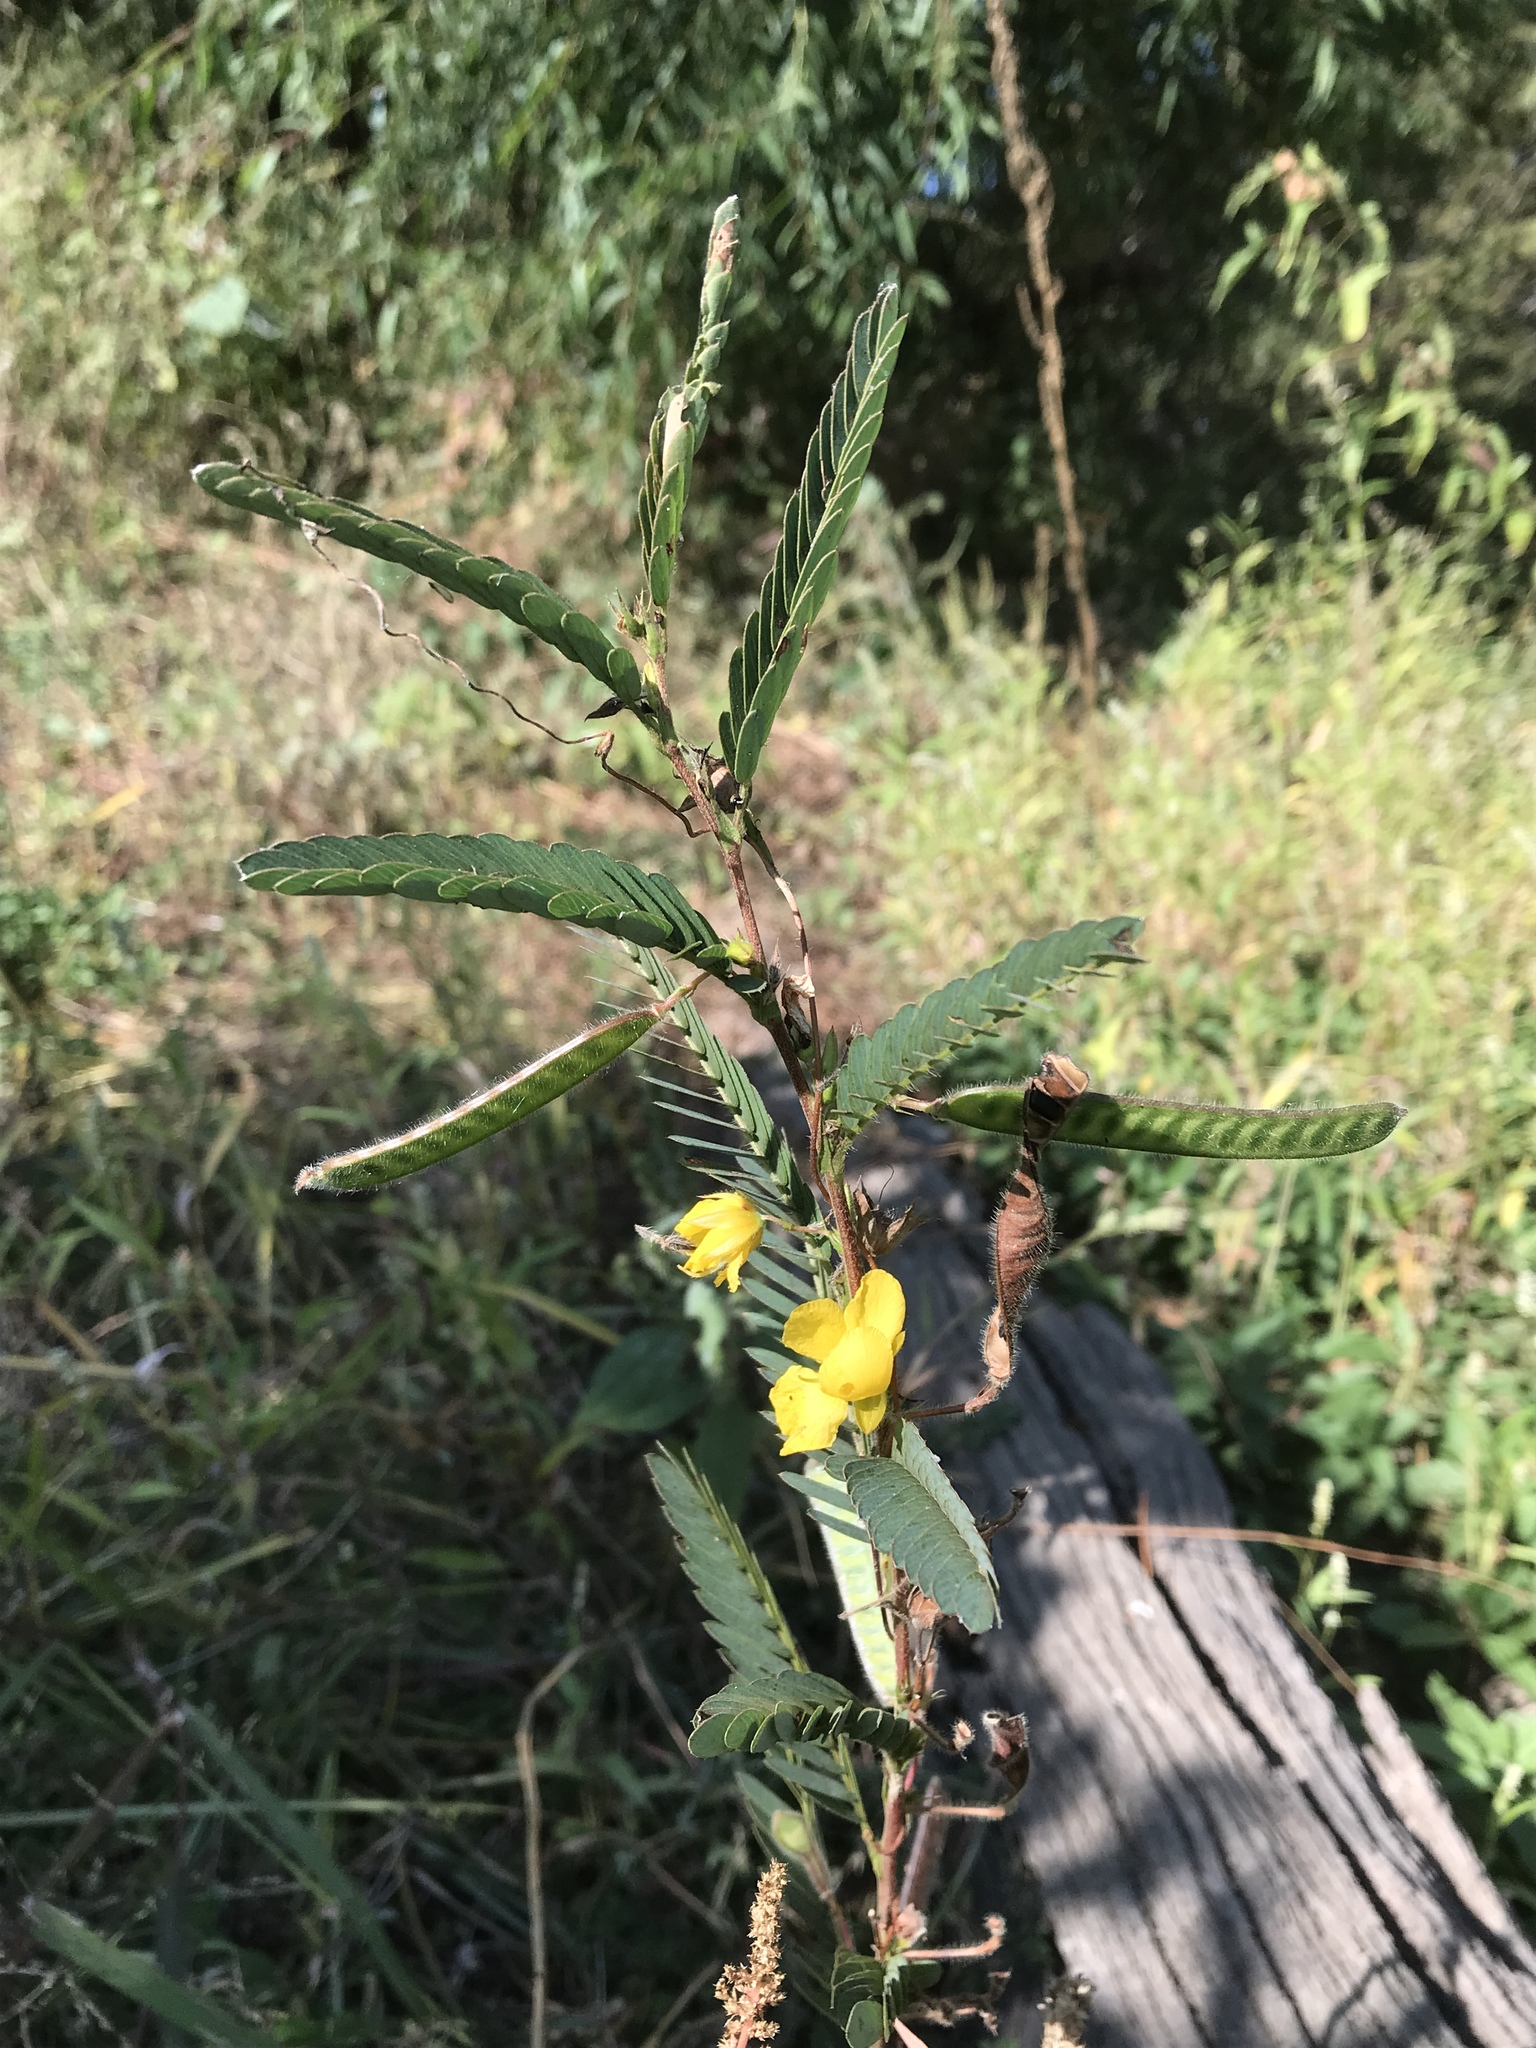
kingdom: Plantae
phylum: Tracheophyta
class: Magnoliopsida
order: Fabales
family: Fabaceae
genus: Chamaecrista
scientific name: Chamaecrista fasciculata
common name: Golden cassia
